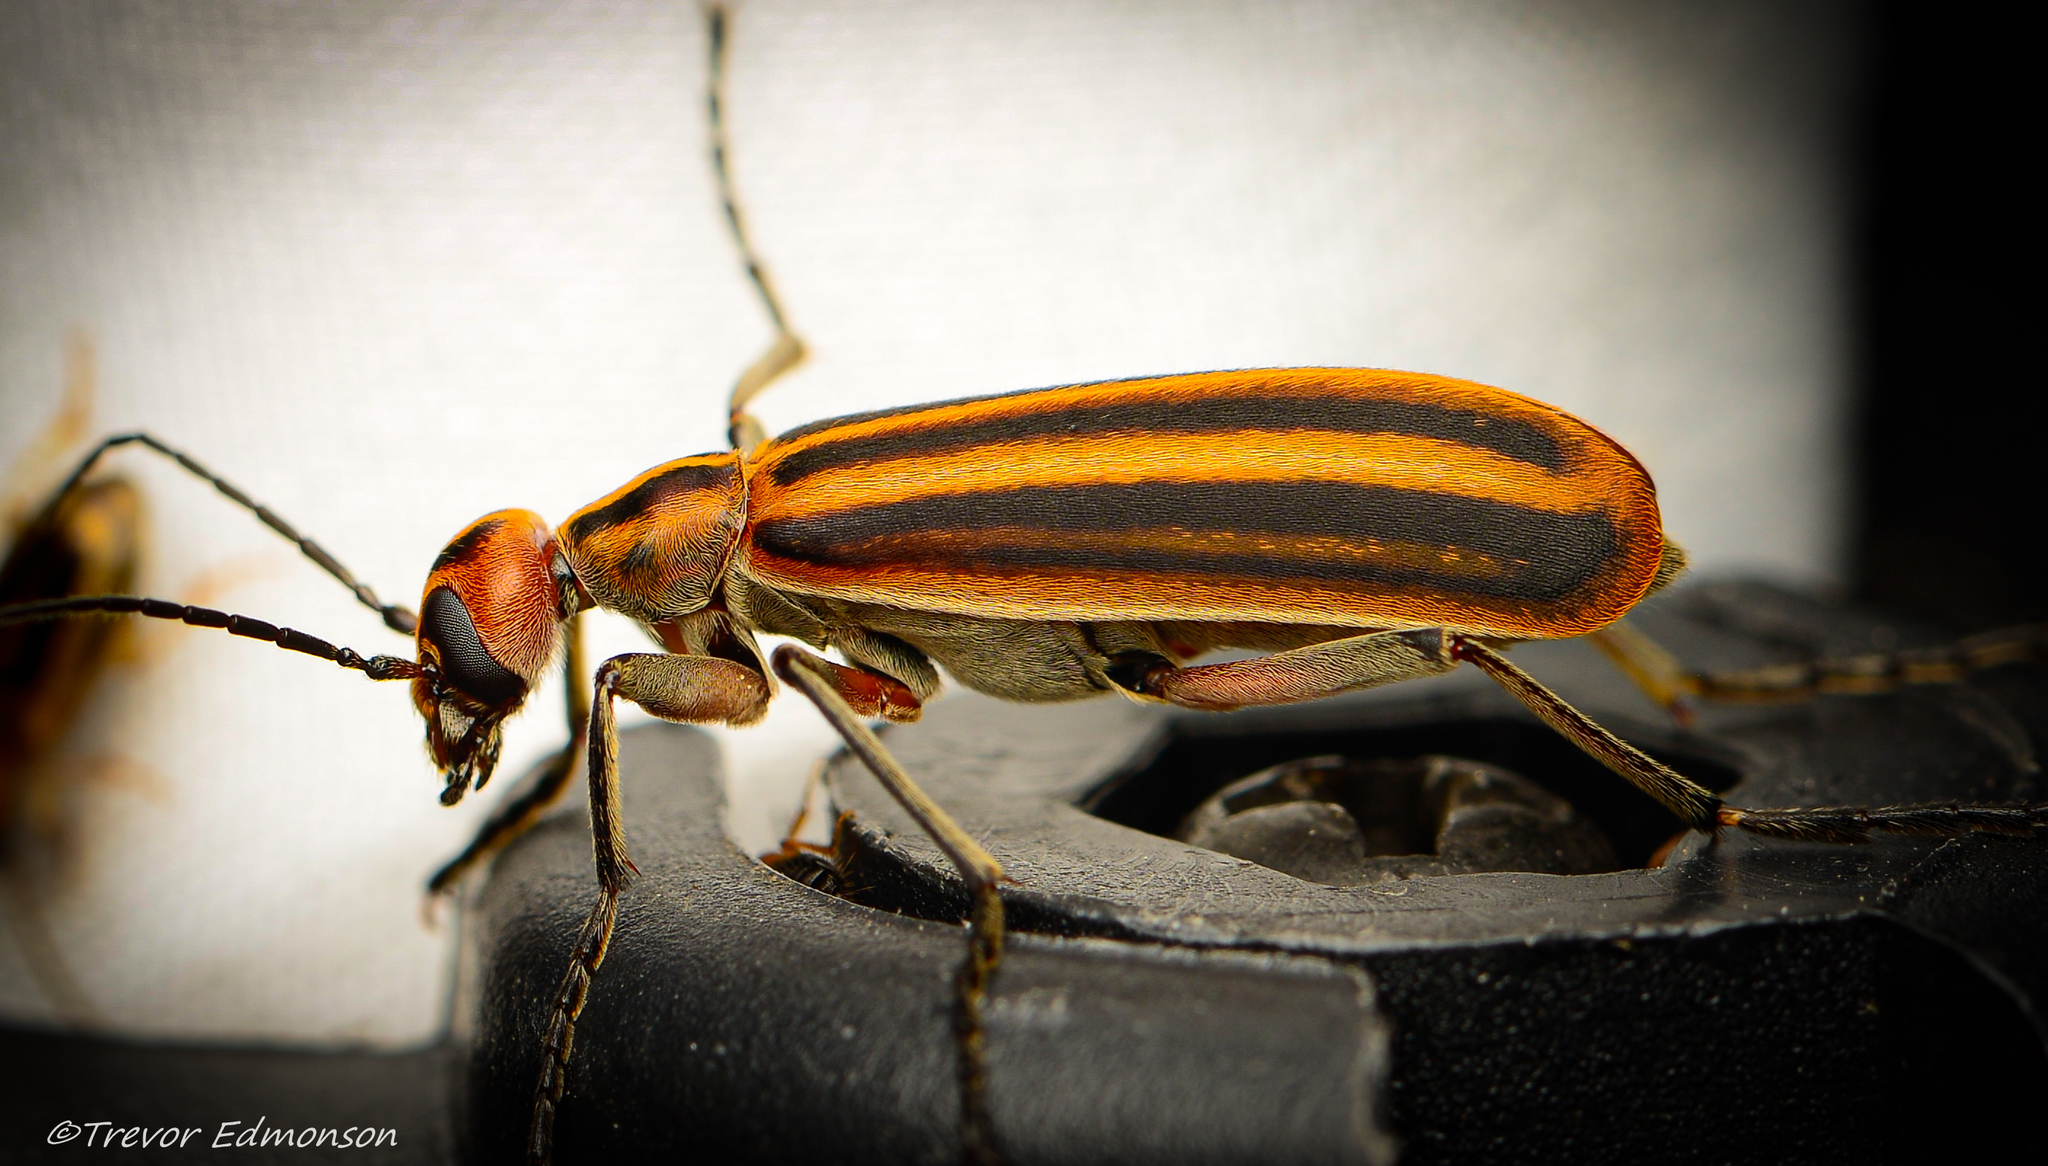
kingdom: Animalia
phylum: Arthropoda
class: Insecta
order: Coleoptera
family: Meloidae
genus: Epicauta
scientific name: Epicauta vittata
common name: Old-fashioned potato beetle
